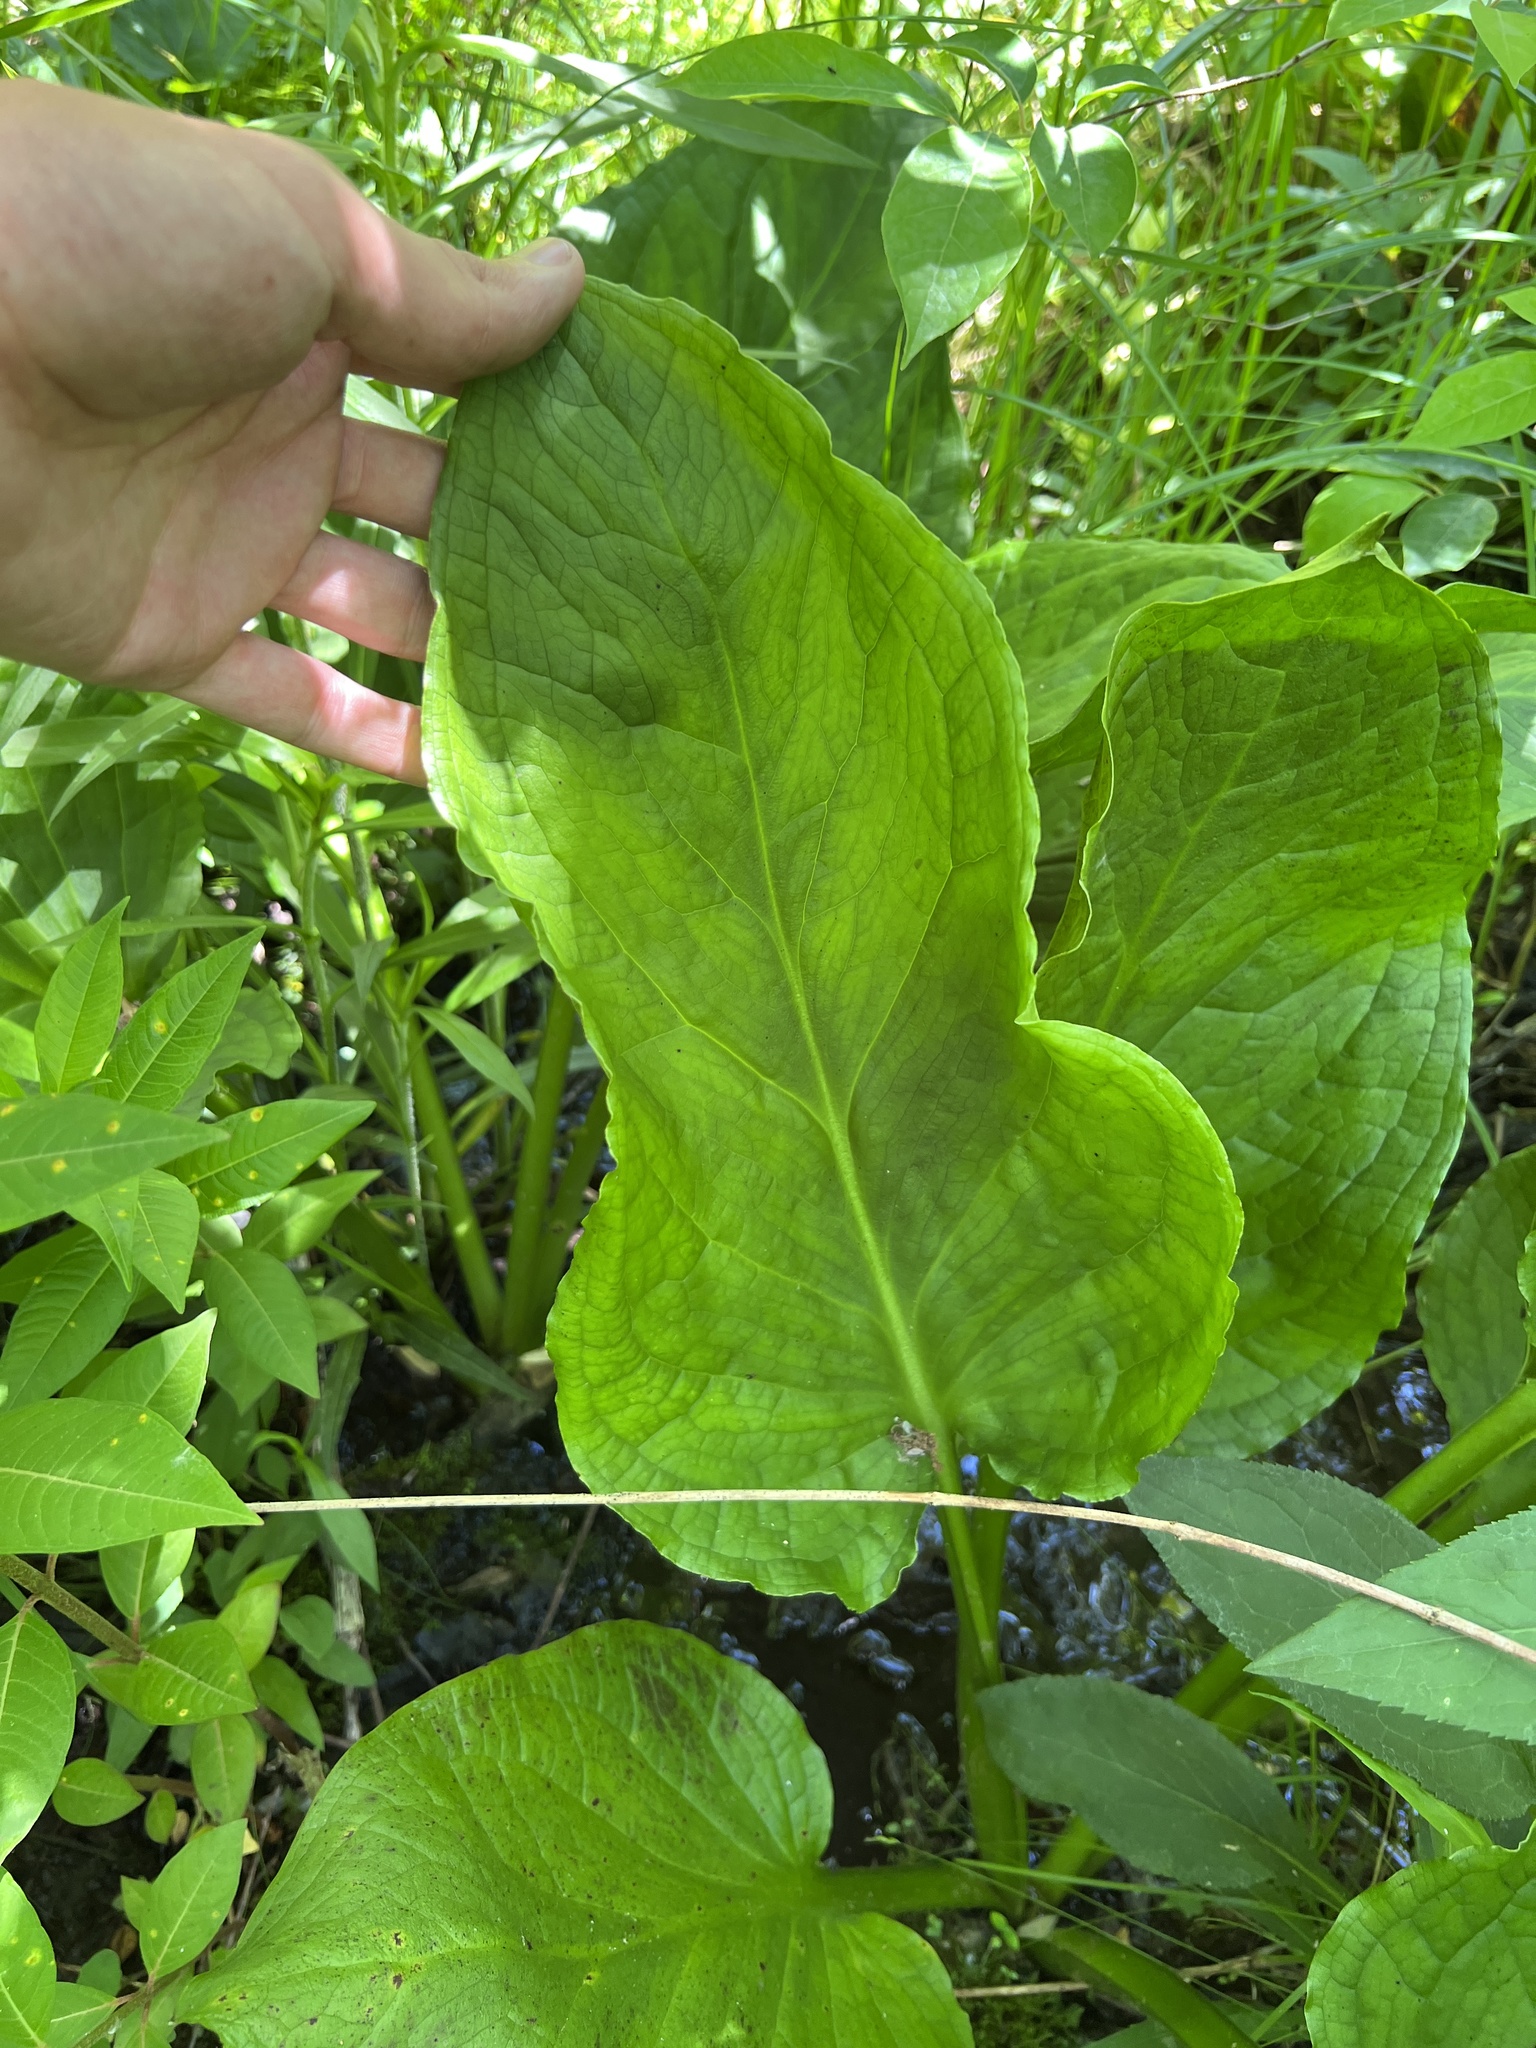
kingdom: Plantae
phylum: Tracheophyta
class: Liliopsida
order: Alismatales
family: Araceae
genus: Symplocarpus
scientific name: Symplocarpus foetidus
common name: Eastern skunk cabbage
